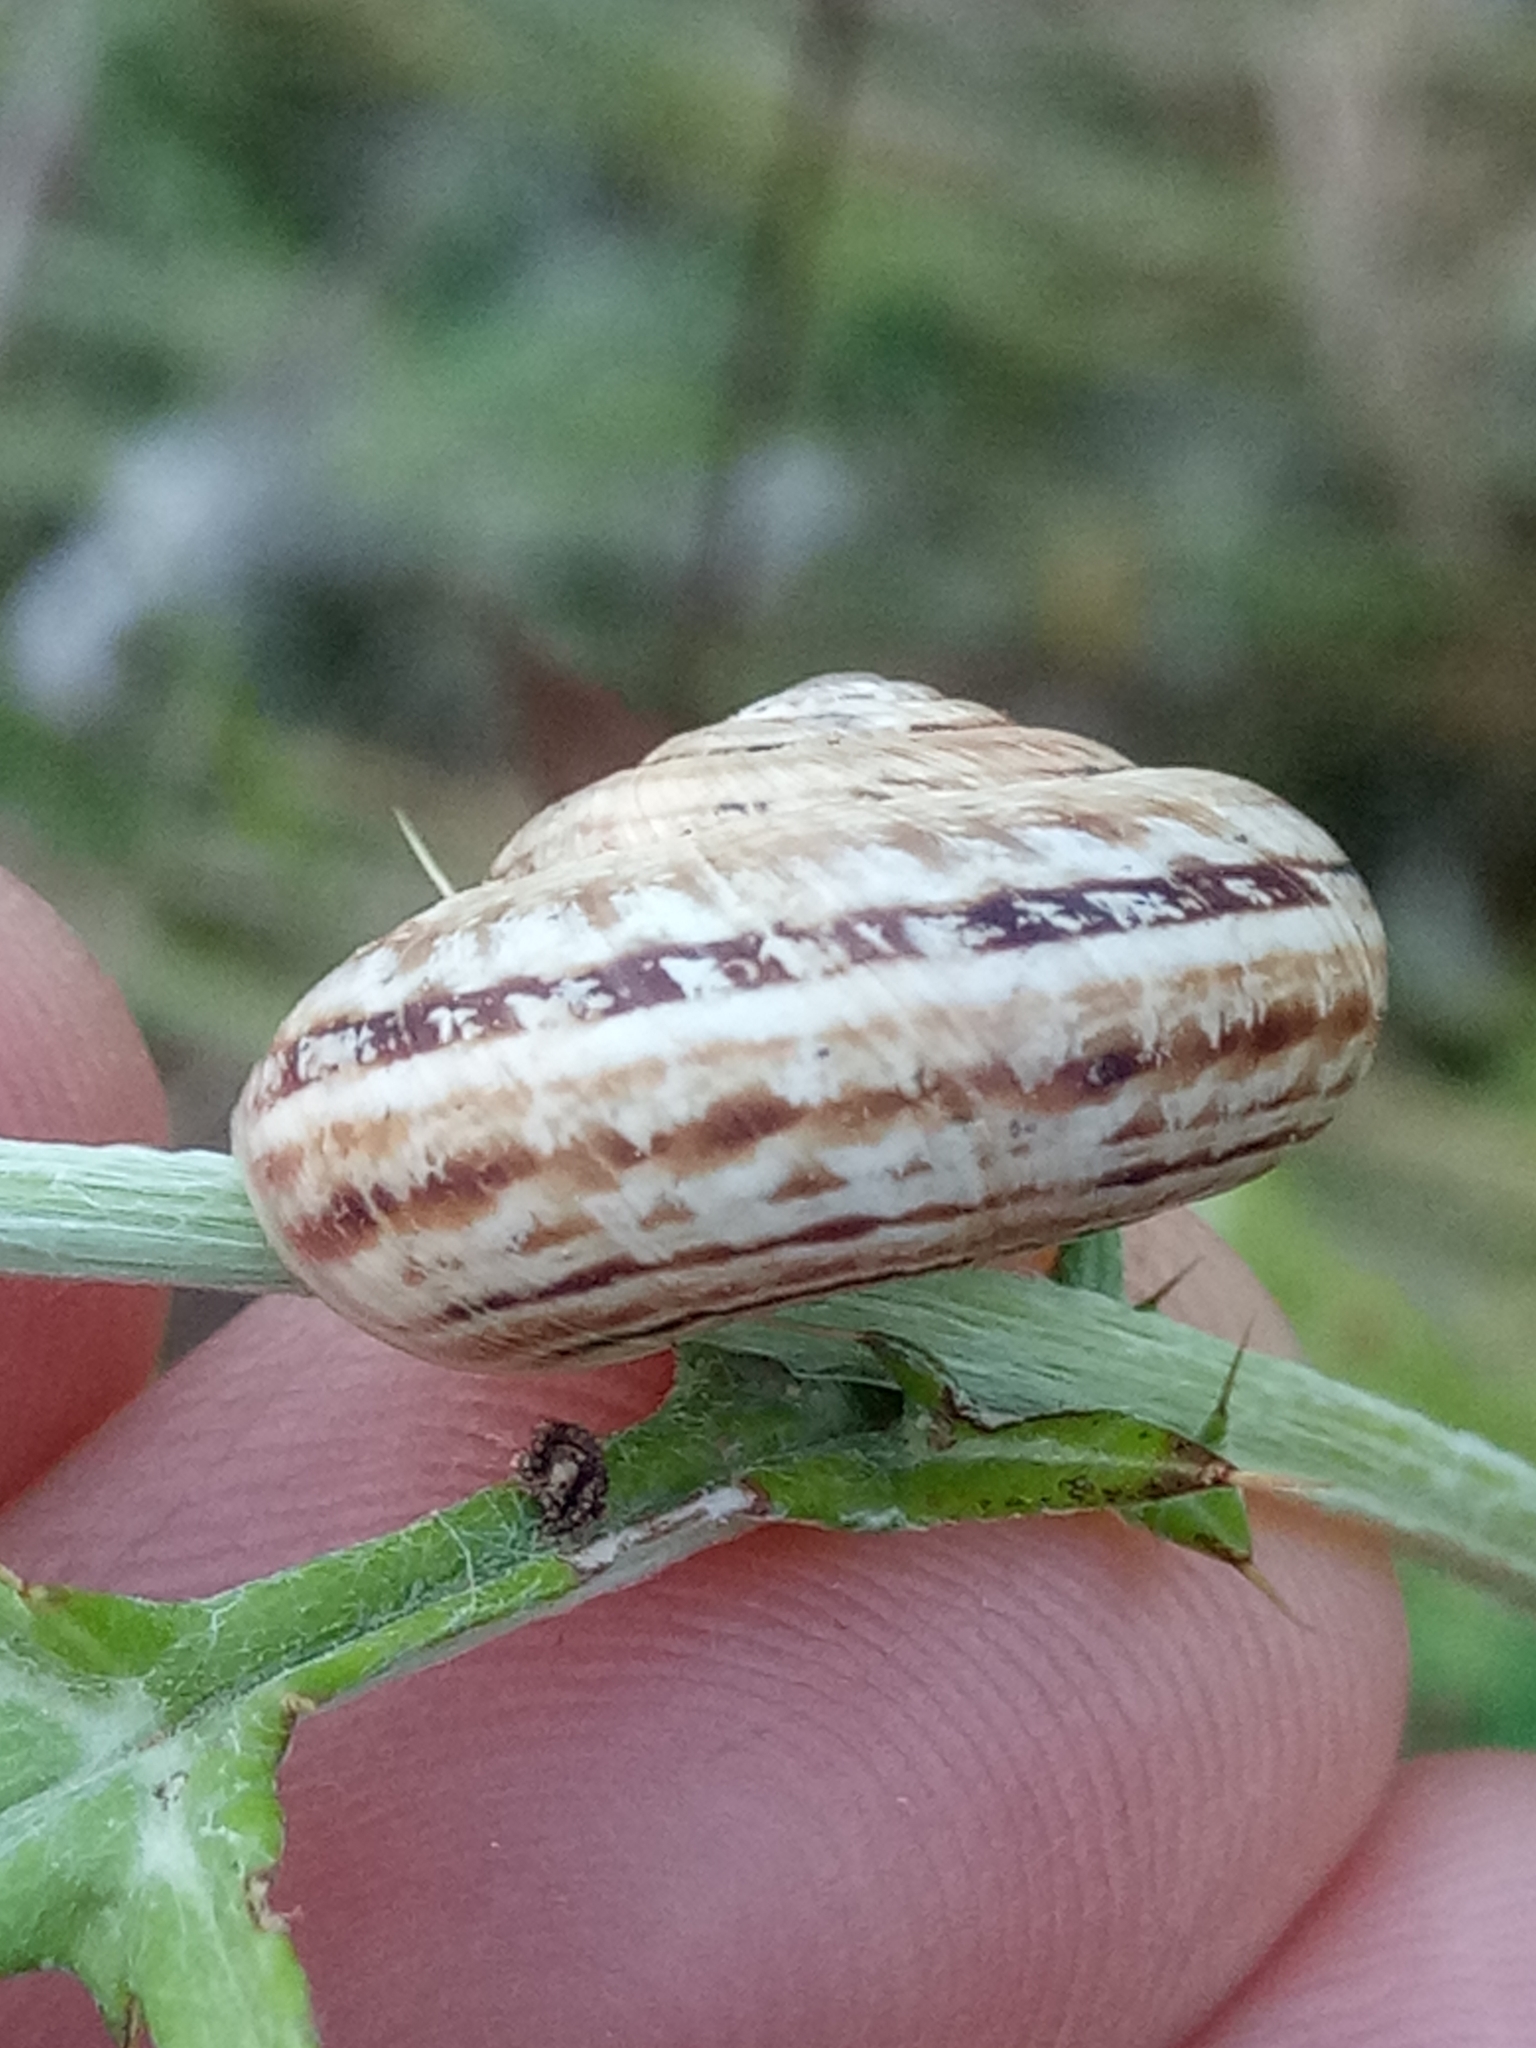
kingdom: Animalia
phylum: Mollusca
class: Gastropoda
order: Stylommatophora
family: Geomitridae
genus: Xerosecta
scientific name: Xerosecta cespitum
